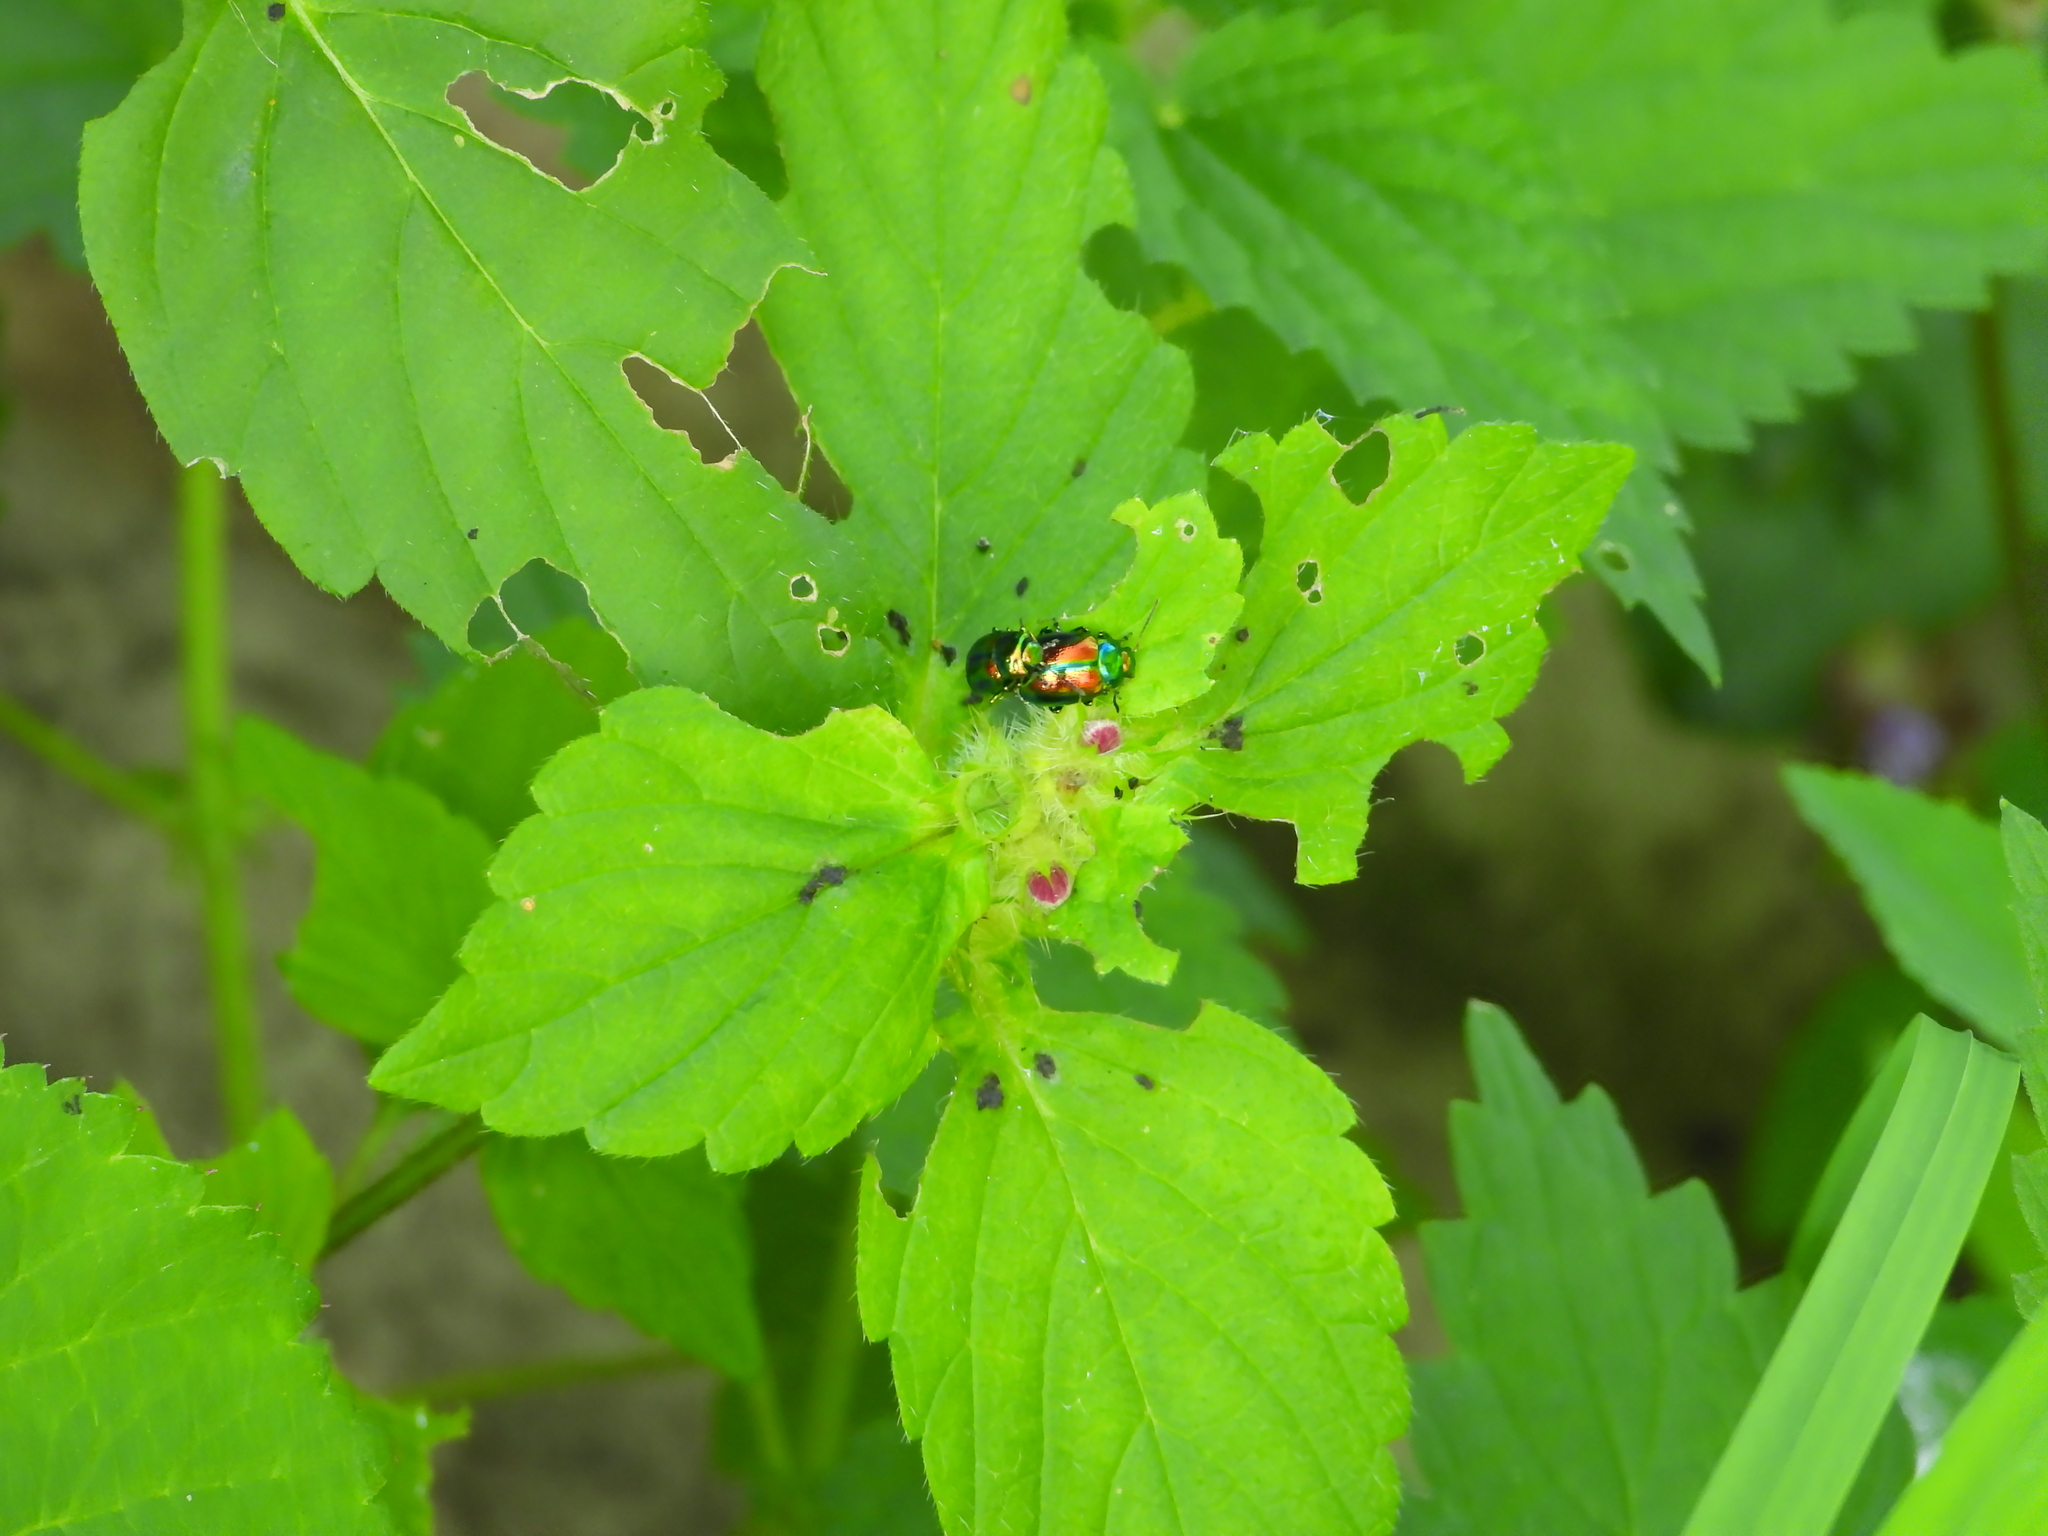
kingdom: Animalia
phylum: Arthropoda
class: Insecta
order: Coleoptera
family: Chrysomelidae
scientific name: Chrysomelidae
